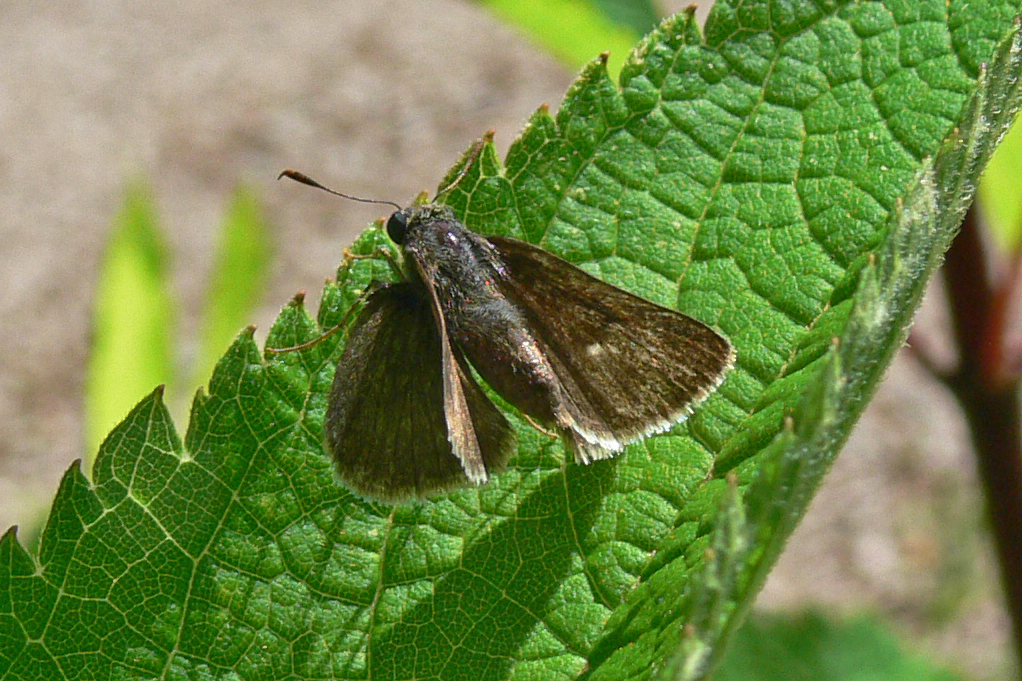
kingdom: Animalia
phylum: Arthropoda
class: Insecta
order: Lepidoptera
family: Hesperiidae
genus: Euphyes
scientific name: Euphyes vestris
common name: Dun skipper
